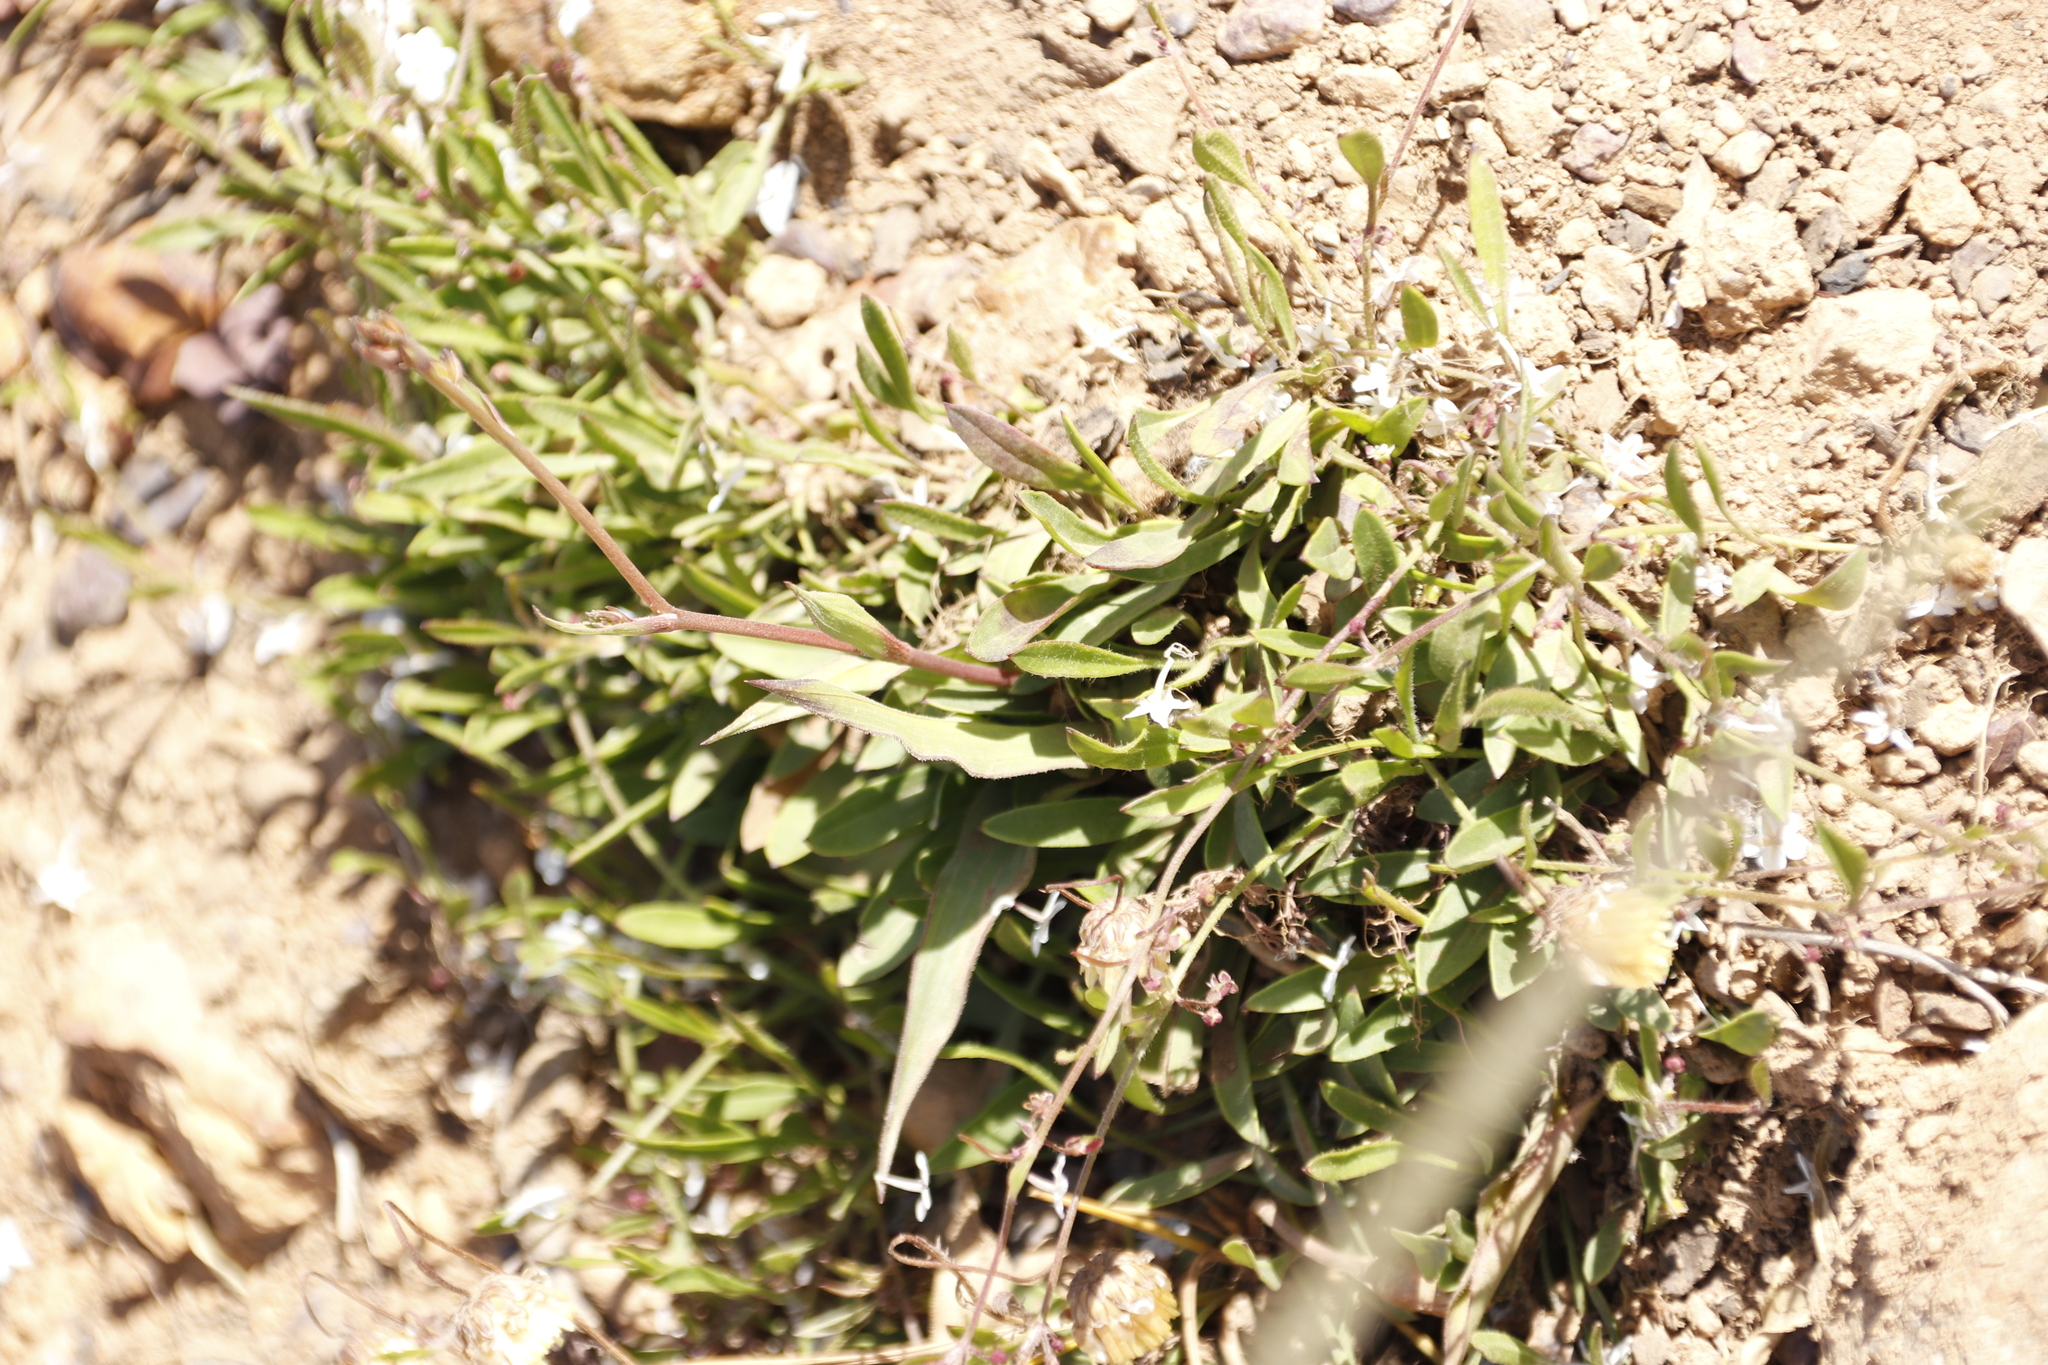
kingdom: Plantae
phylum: Tracheophyta
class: Magnoliopsida
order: Apiales
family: Apiaceae
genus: Centella
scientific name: Centella glabrata
